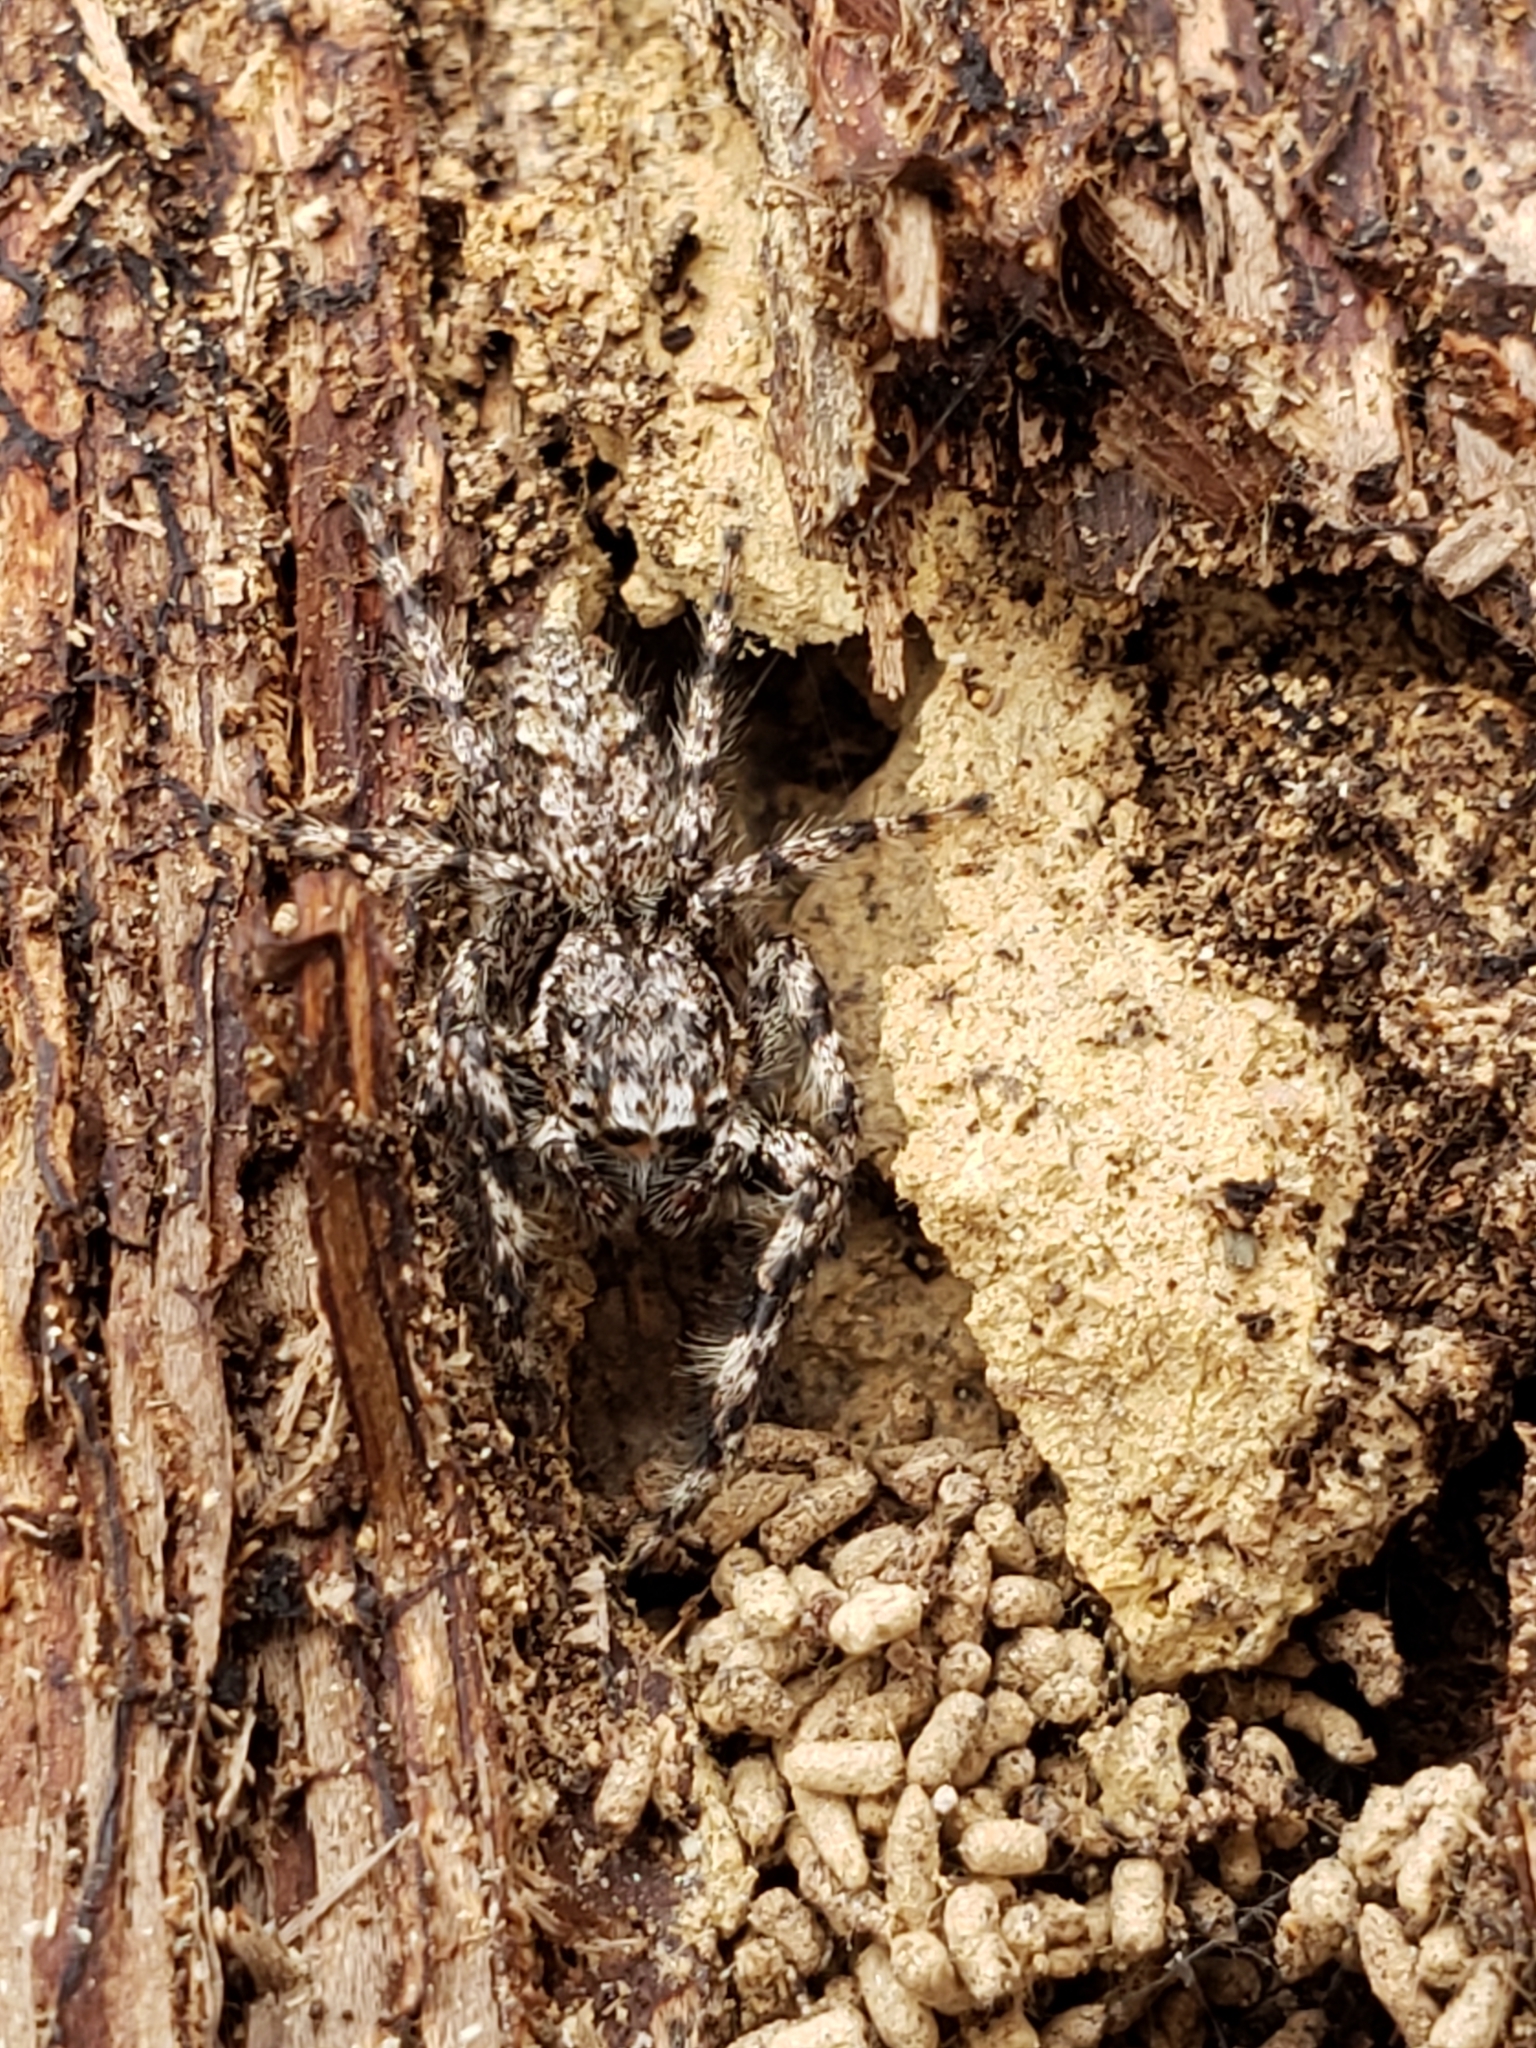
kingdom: Animalia
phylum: Arthropoda
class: Arachnida
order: Araneae
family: Salticidae
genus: Platycryptus
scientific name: Platycryptus undatus
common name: Tan jumping spider
